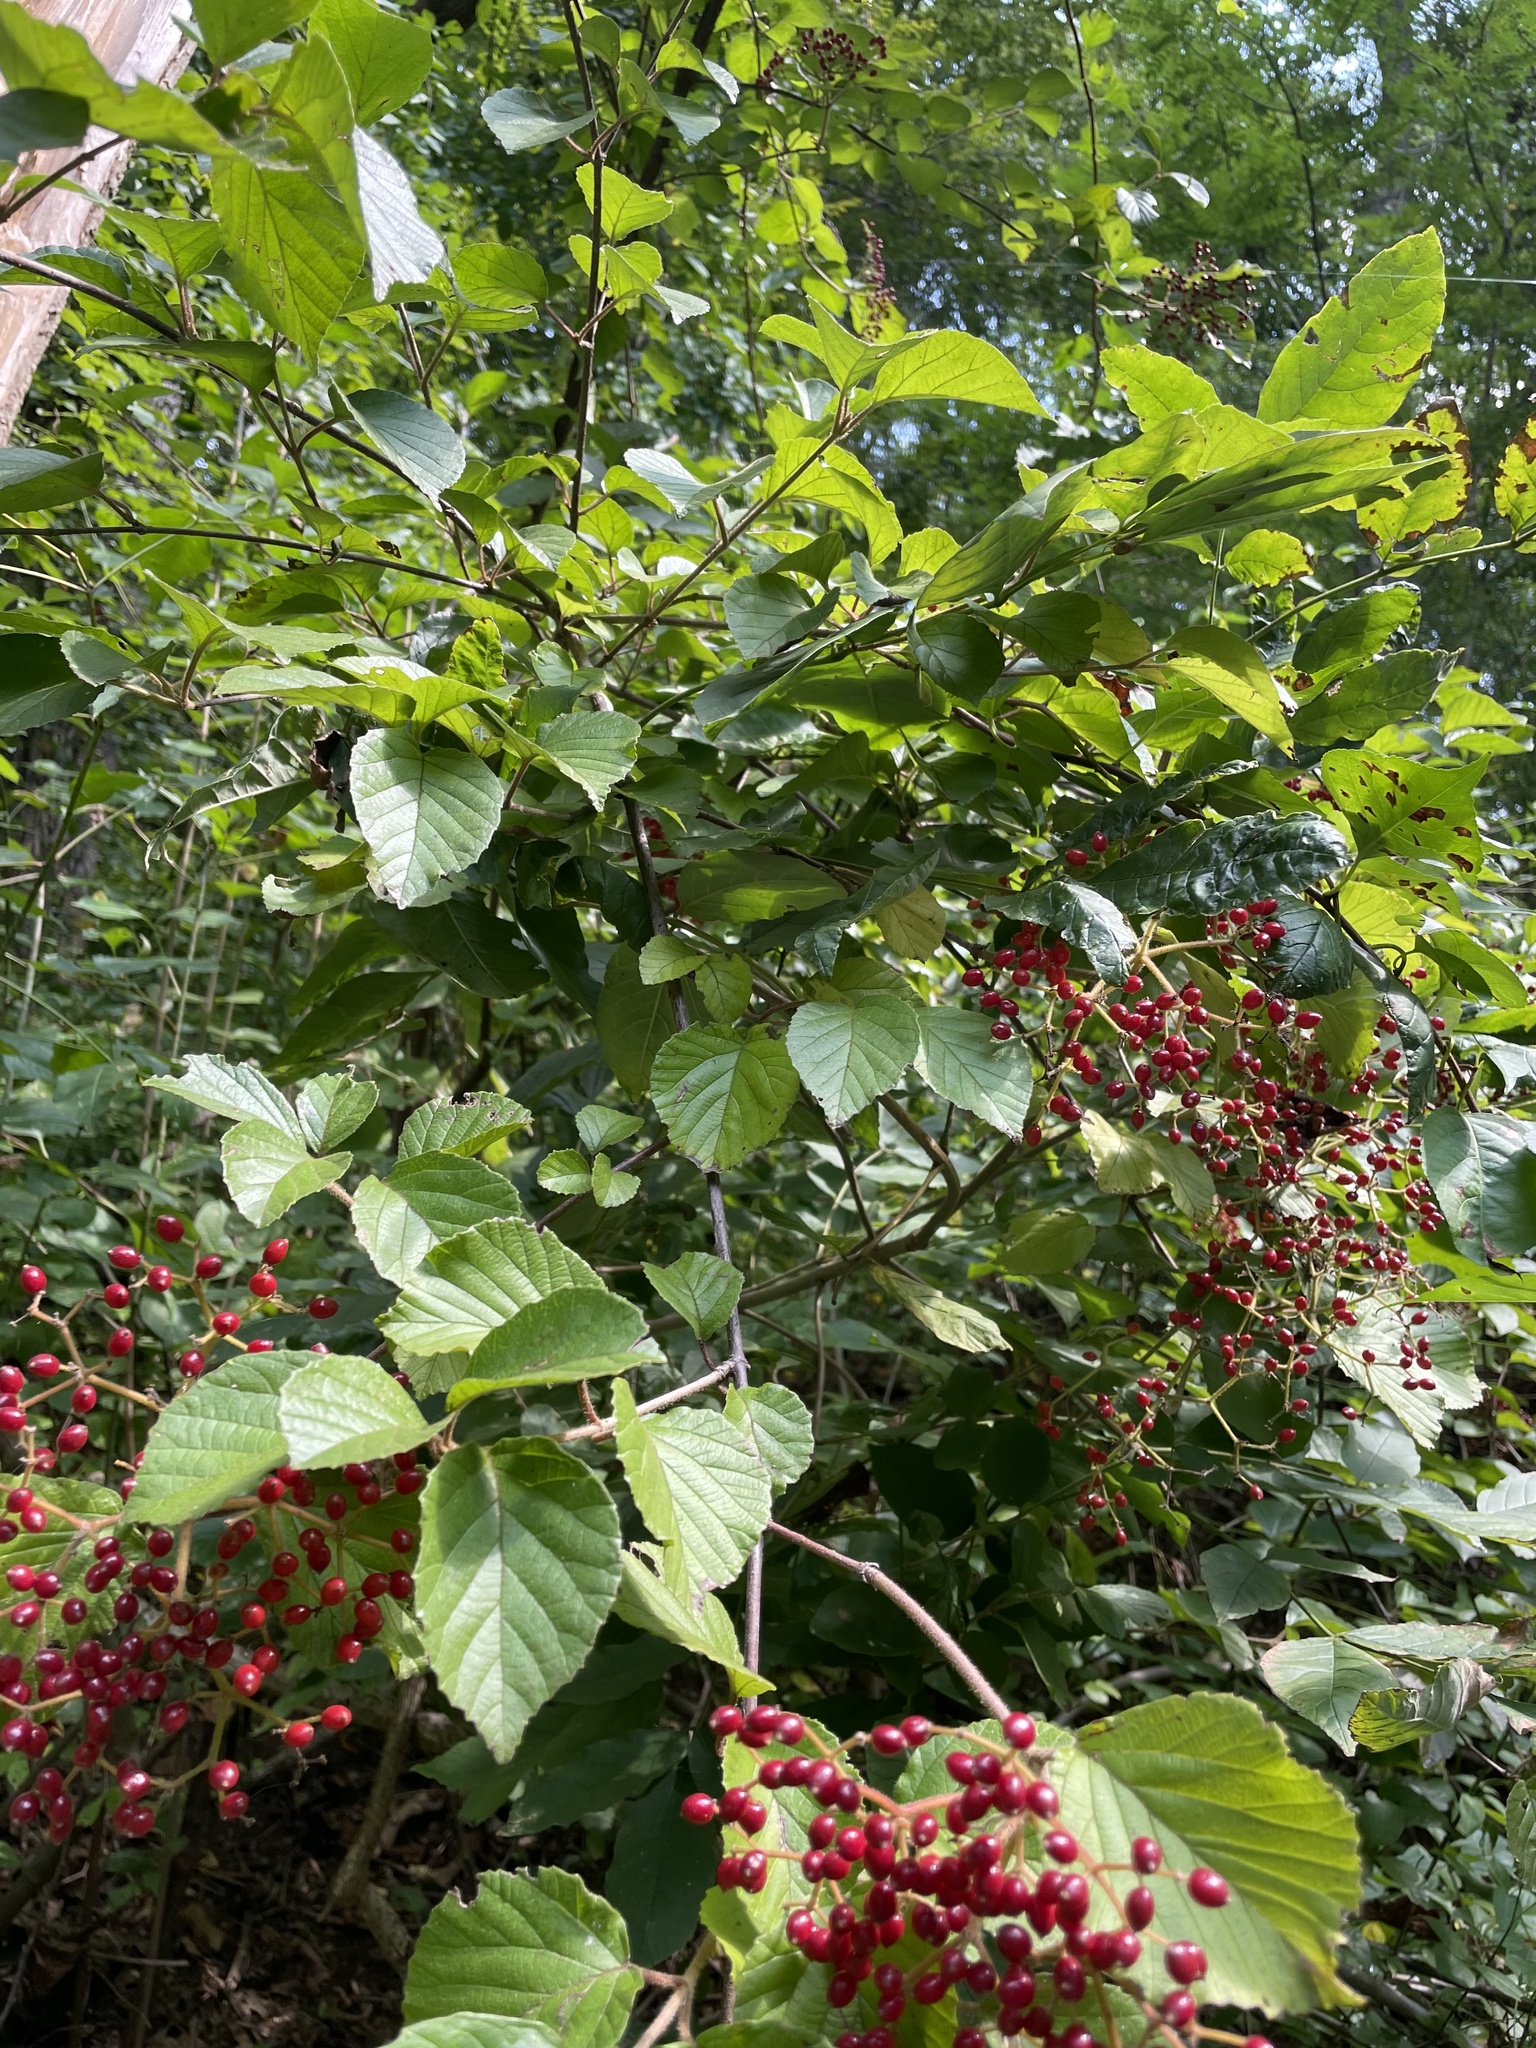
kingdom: Plantae
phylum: Tracheophyta
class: Magnoliopsida
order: Dipsacales
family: Viburnaceae
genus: Viburnum
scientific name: Viburnum dilatatum
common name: Linden arrowwood
